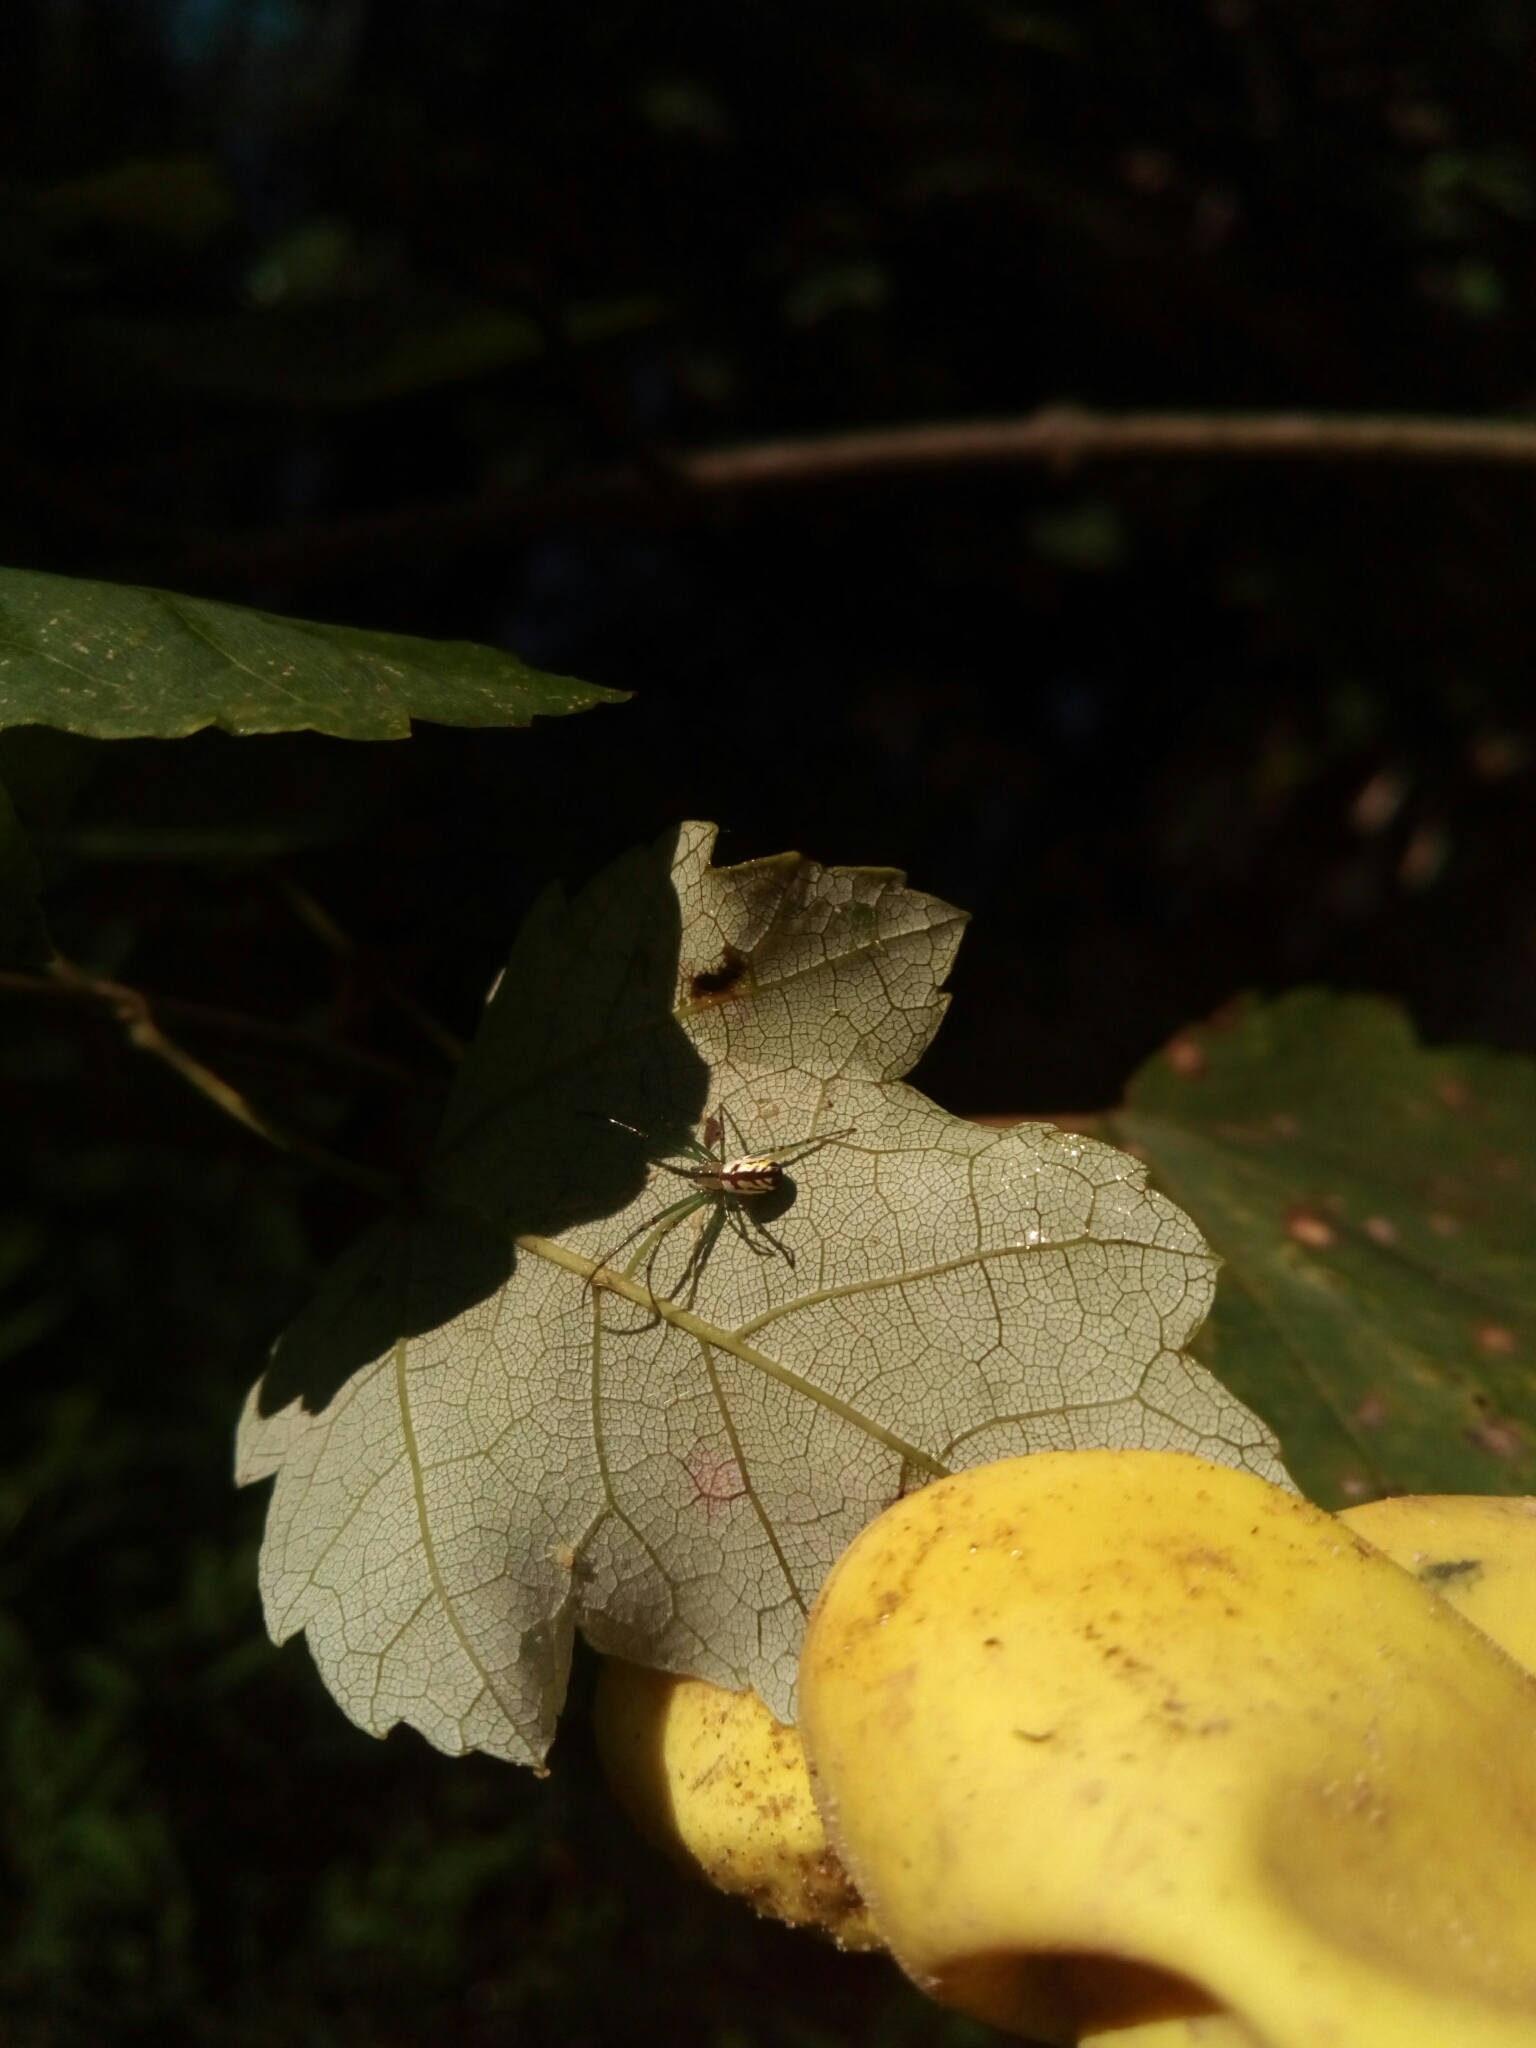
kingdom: Animalia
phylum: Arthropoda
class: Arachnida
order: Araneae
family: Tetragnathidae
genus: Leucauge
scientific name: Leucauge
